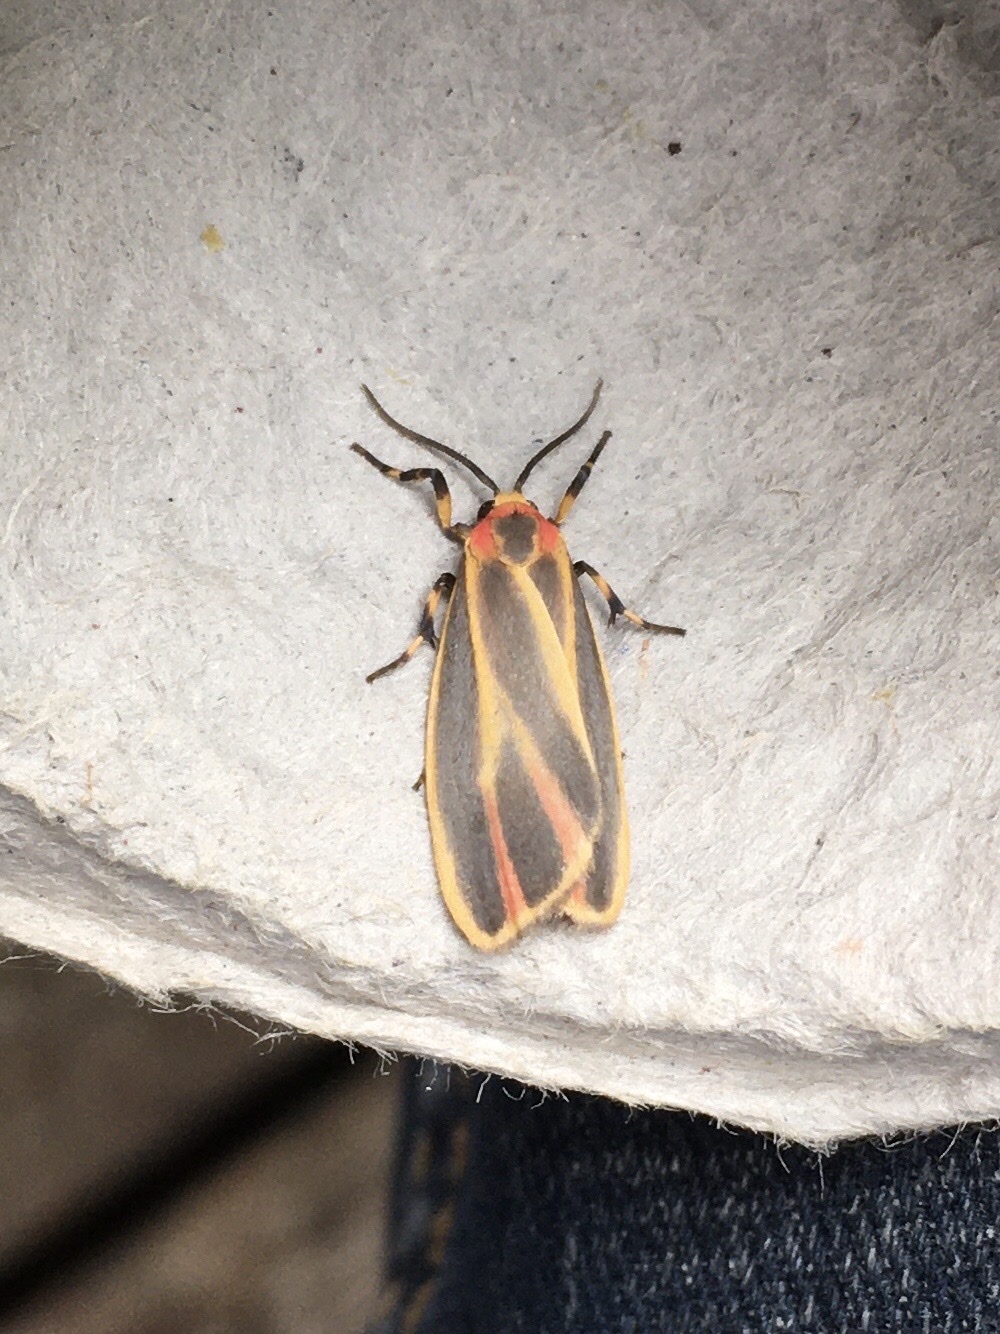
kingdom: Animalia
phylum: Arthropoda
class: Insecta
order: Lepidoptera
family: Erebidae
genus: Hypoprepia
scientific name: Hypoprepia fucosa
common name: Painted lichen moth
